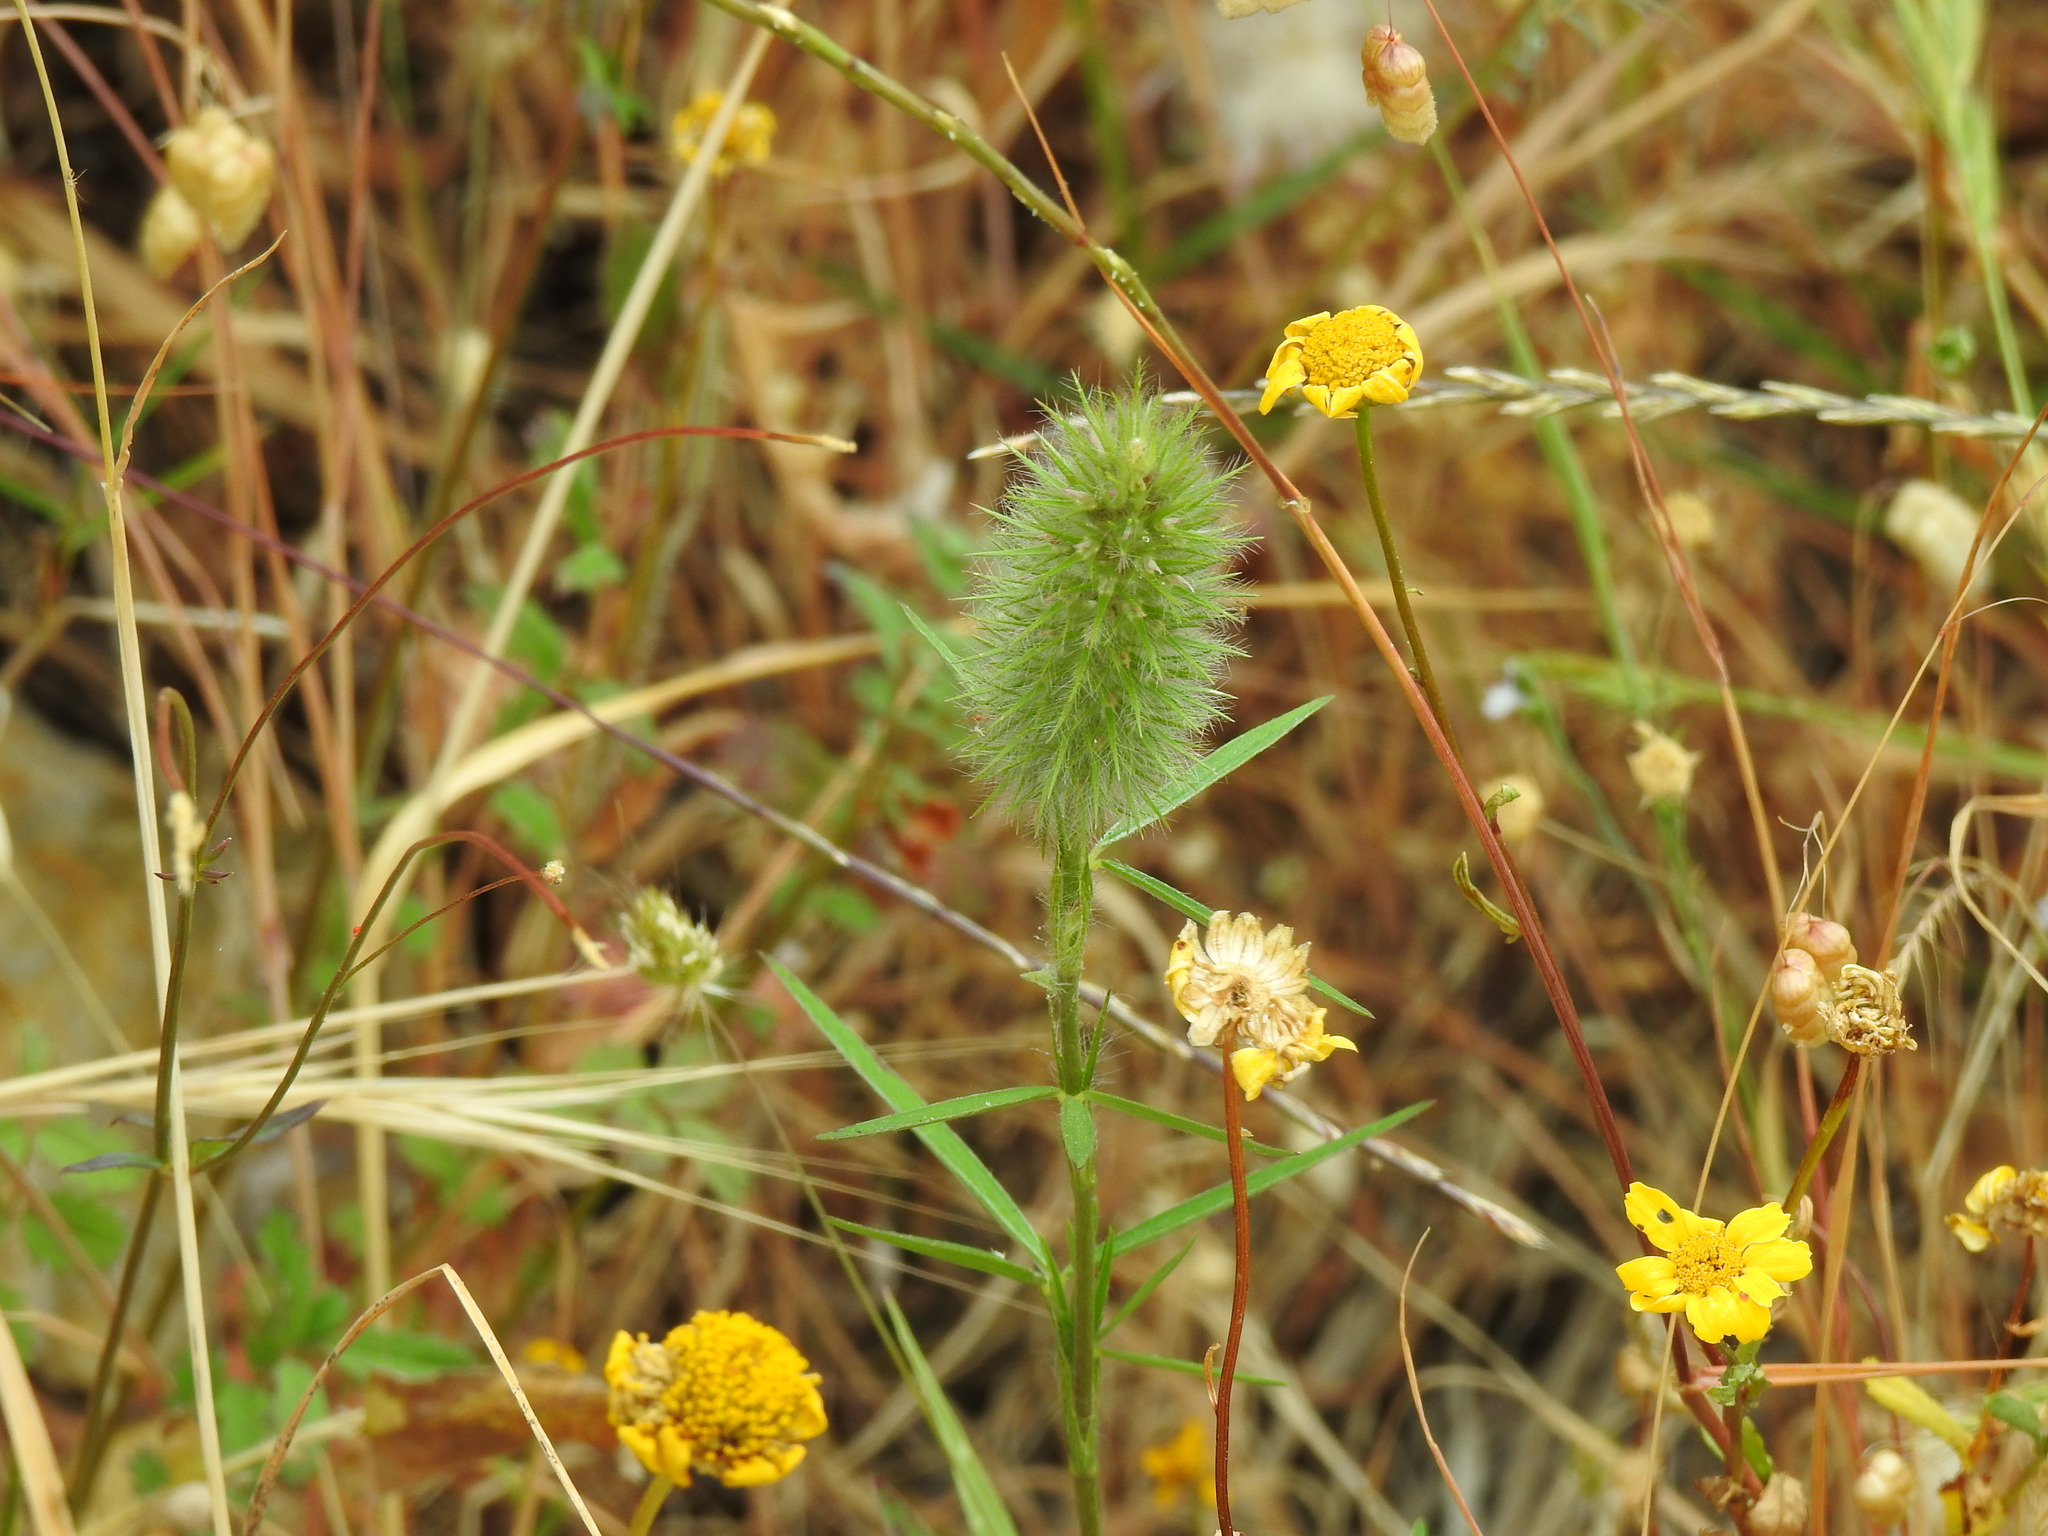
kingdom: Plantae
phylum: Tracheophyta
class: Magnoliopsida
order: Fabales
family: Fabaceae
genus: Trifolium
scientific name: Trifolium angustifolium
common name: Narrow clover
